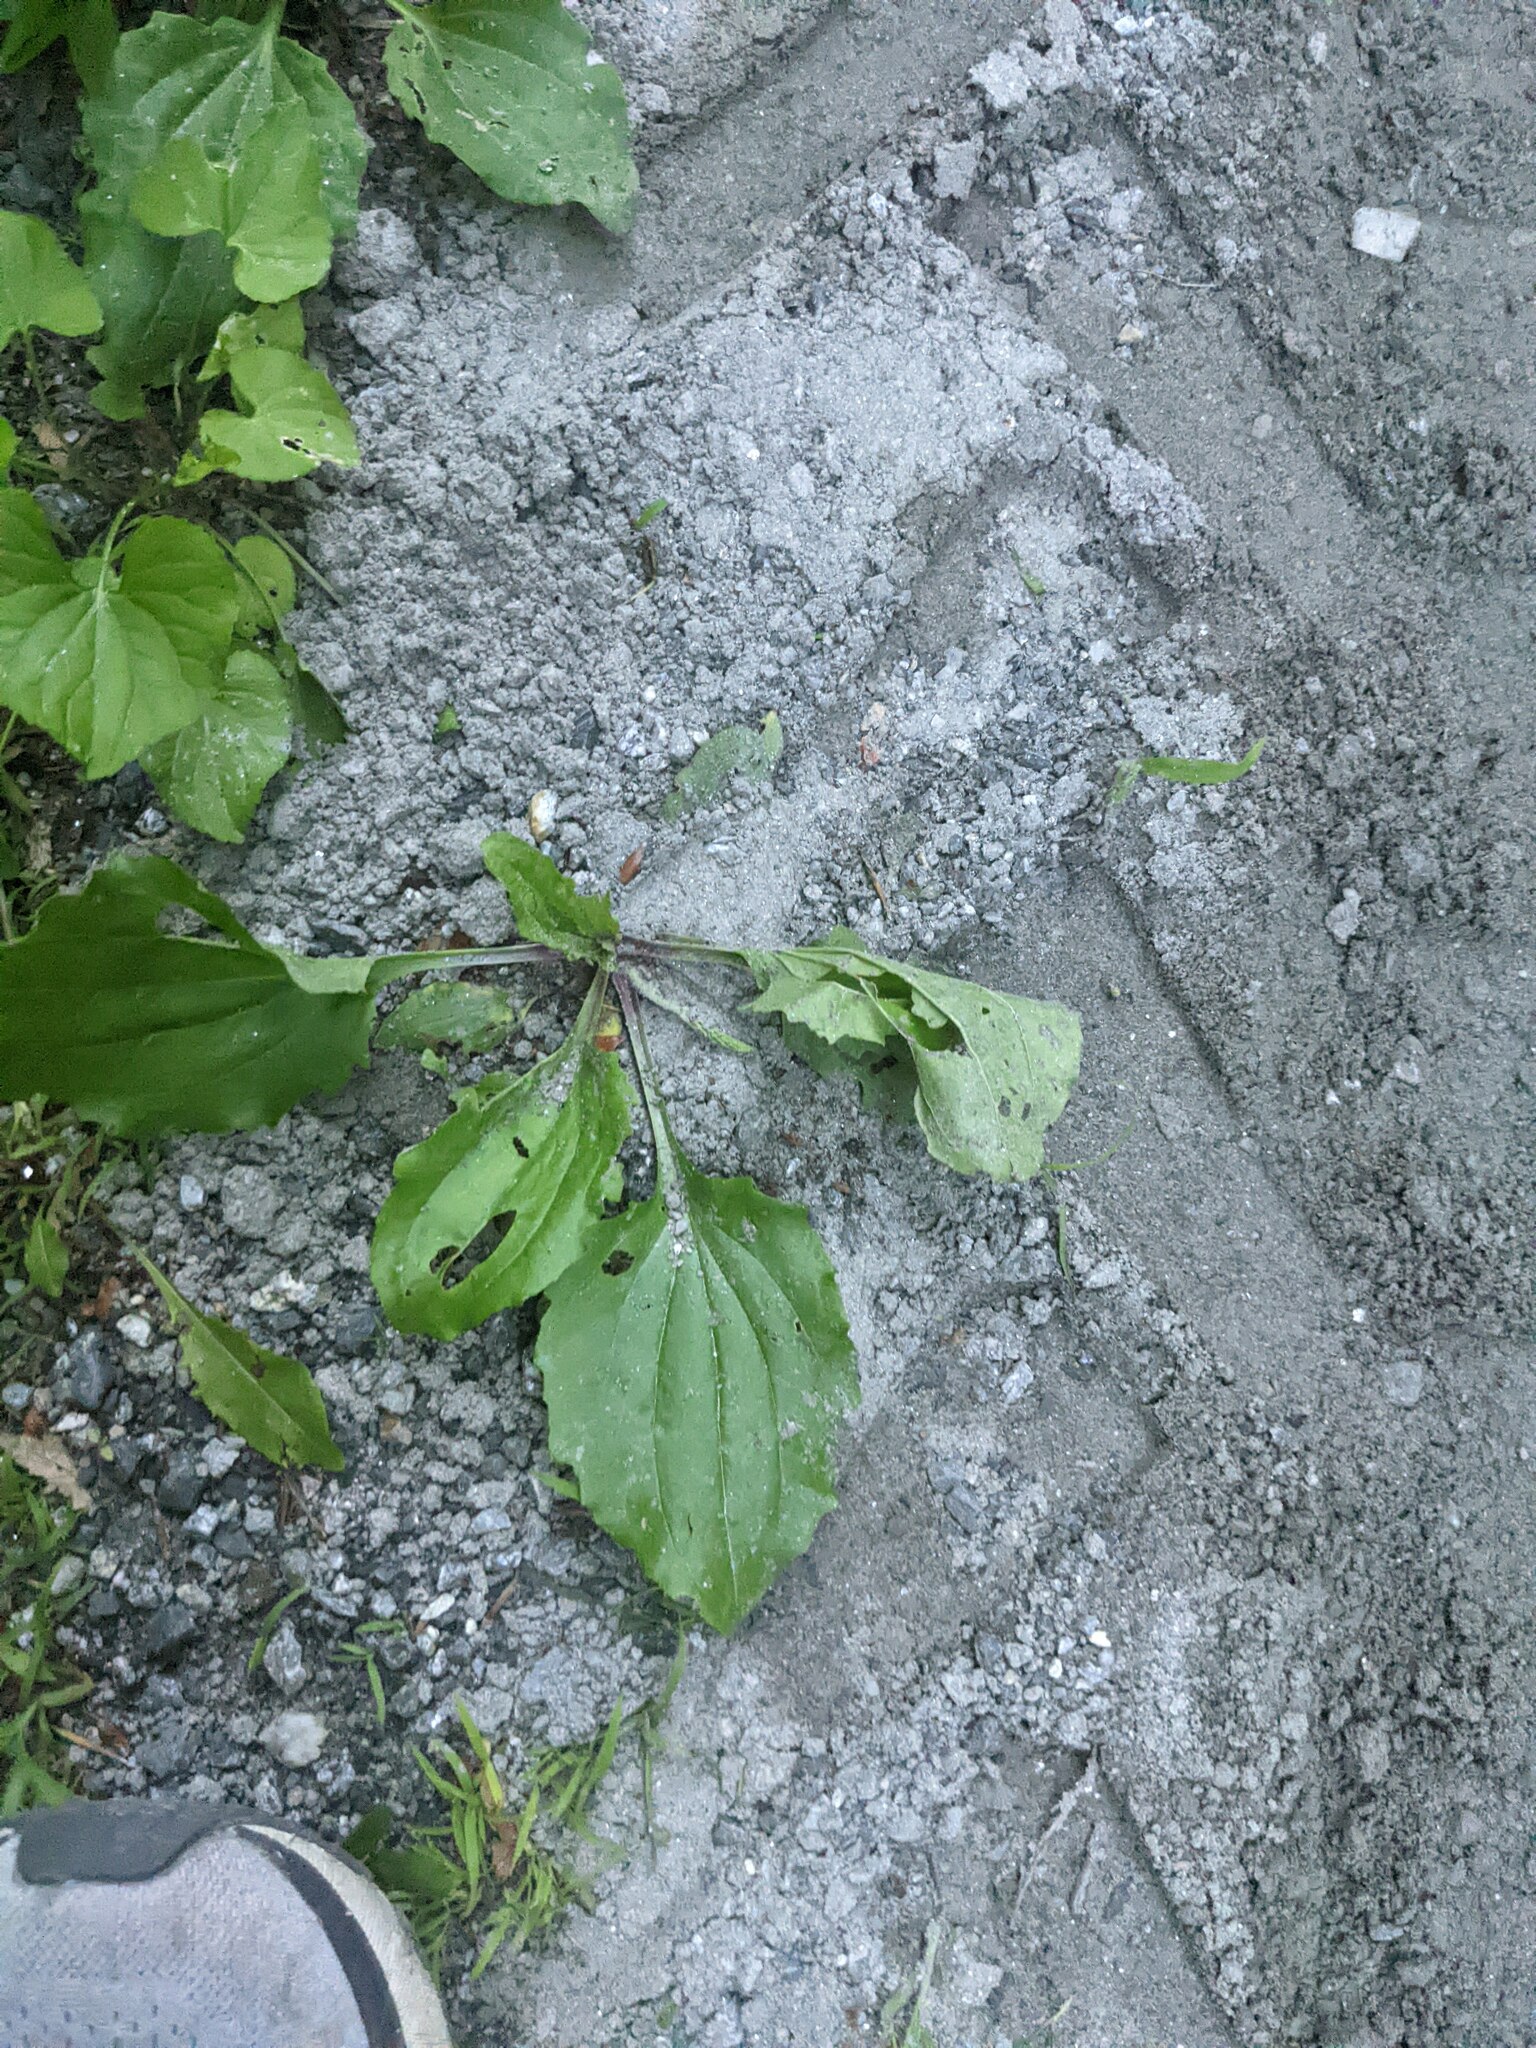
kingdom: Plantae
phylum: Tracheophyta
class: Magnoliopsida
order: Lamiales
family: Plantaginaceae
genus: Plantago
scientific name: Plantago rugelii
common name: American plantain
